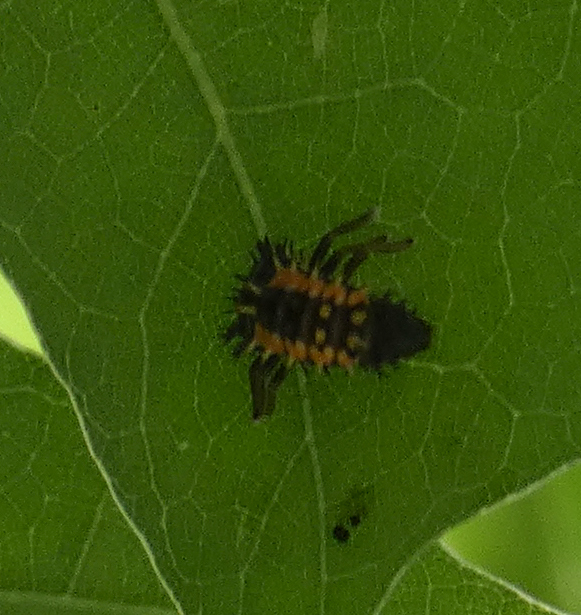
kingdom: Animalia
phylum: Arthropoda
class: Insecta
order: Coleoptera
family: Coccinellidae
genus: Harmonia
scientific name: Harmonia axyridis
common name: Harlequin ladybird
